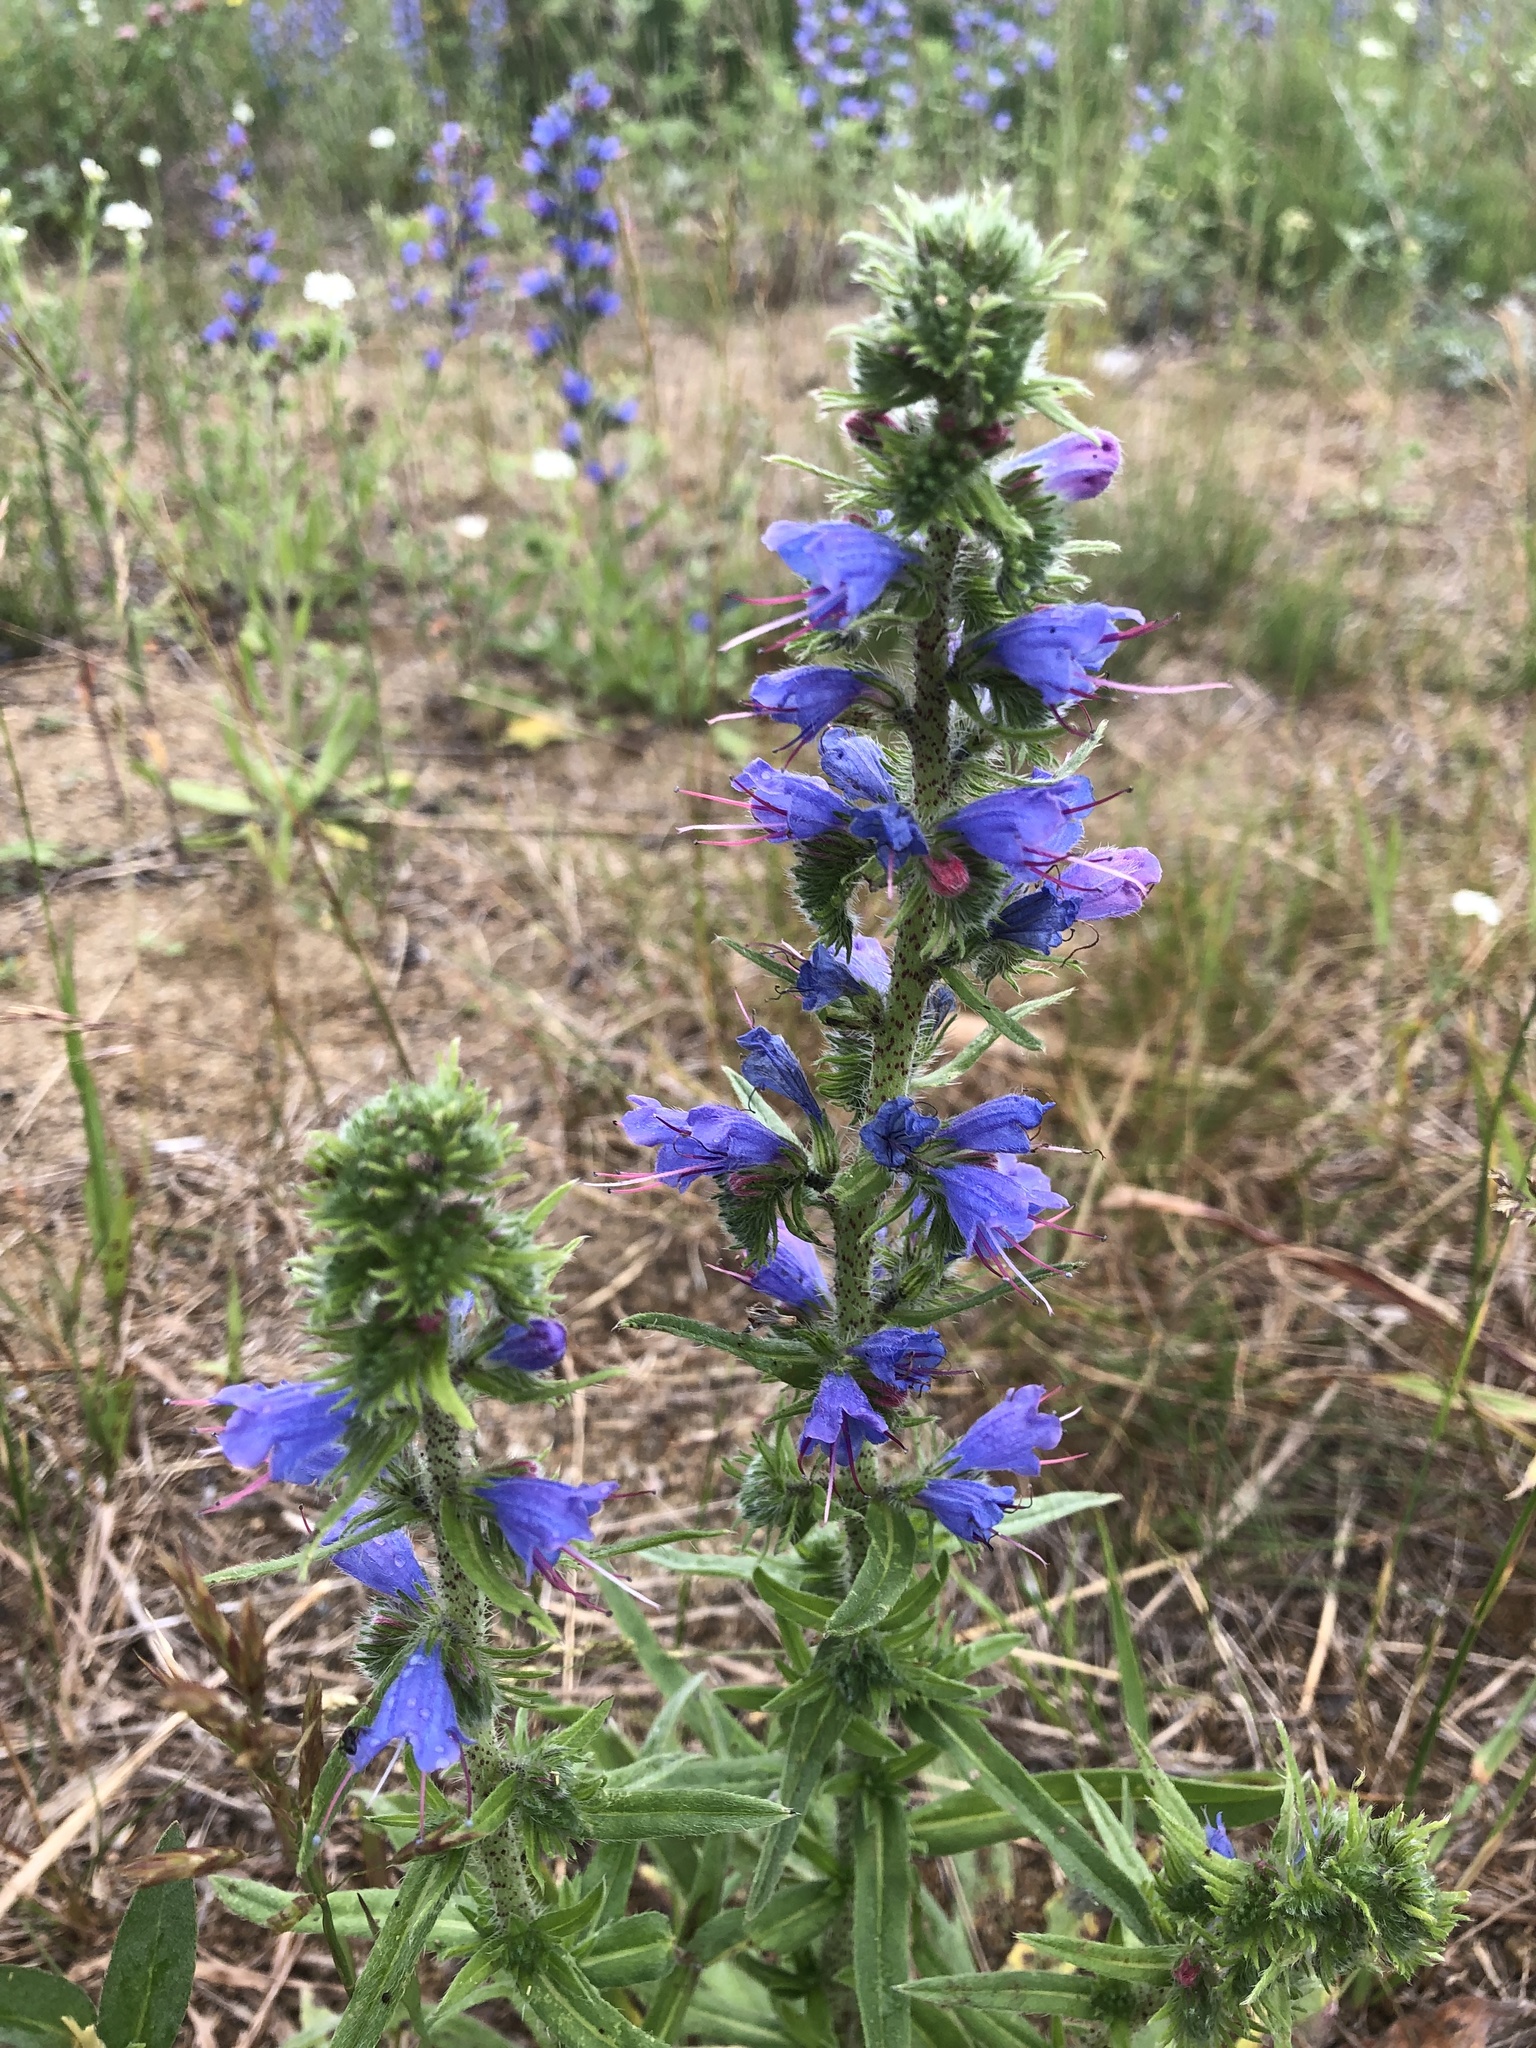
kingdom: Plantae
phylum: Tracheophyta
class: Magnoliopsida
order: Boraginales
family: Boraginaceae
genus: Echium
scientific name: Echium vulgare
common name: Common viper's bugloss
